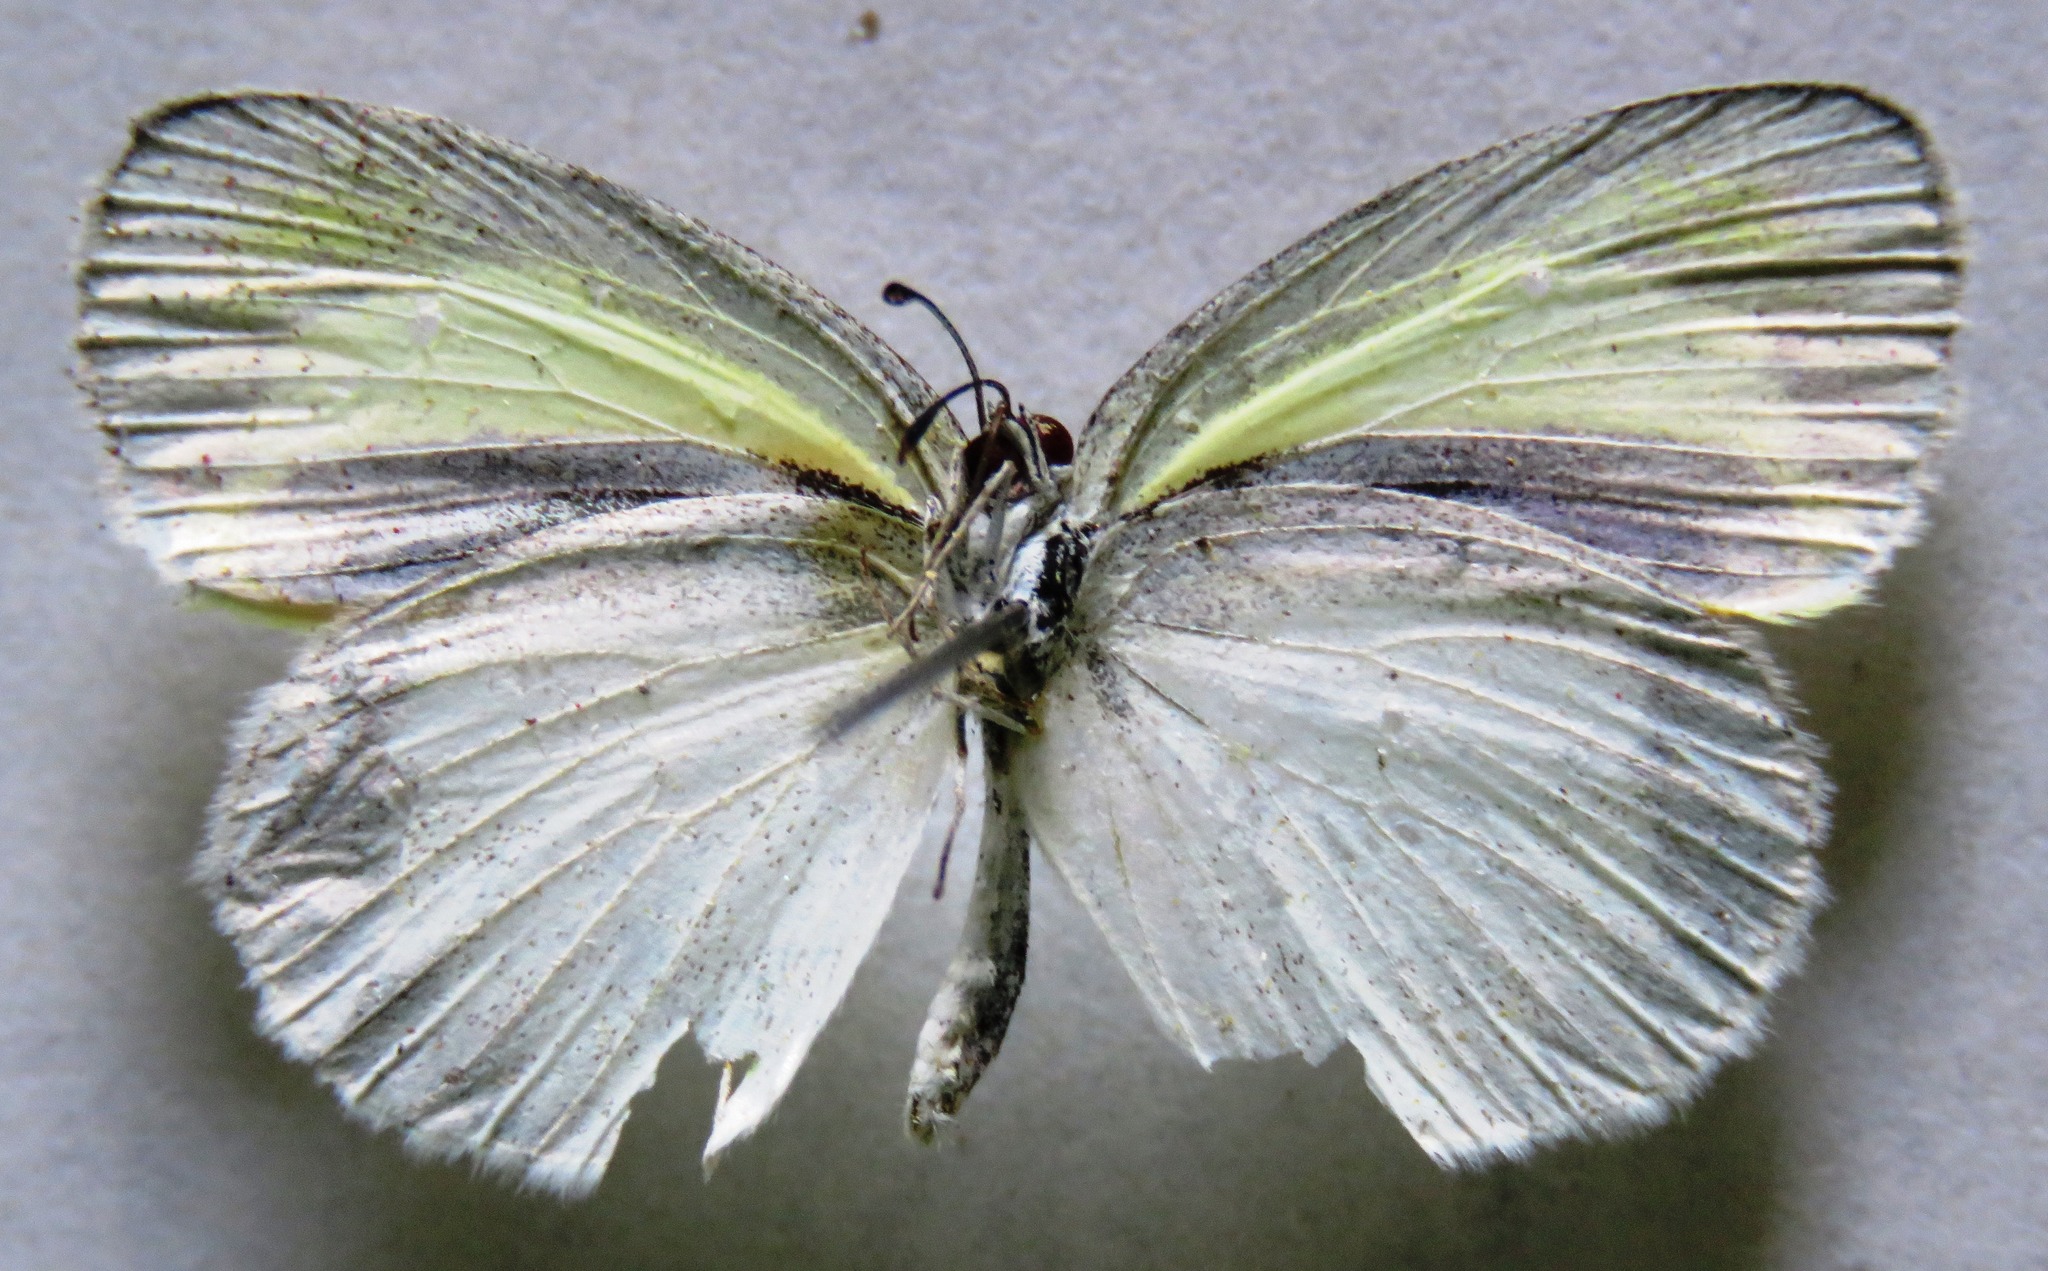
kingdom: Animalia
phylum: Arthropoda
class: Insecta
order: Lepidoptera
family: Pieridae
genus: Eurema
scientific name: Eurema daira
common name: Barred sulphur
